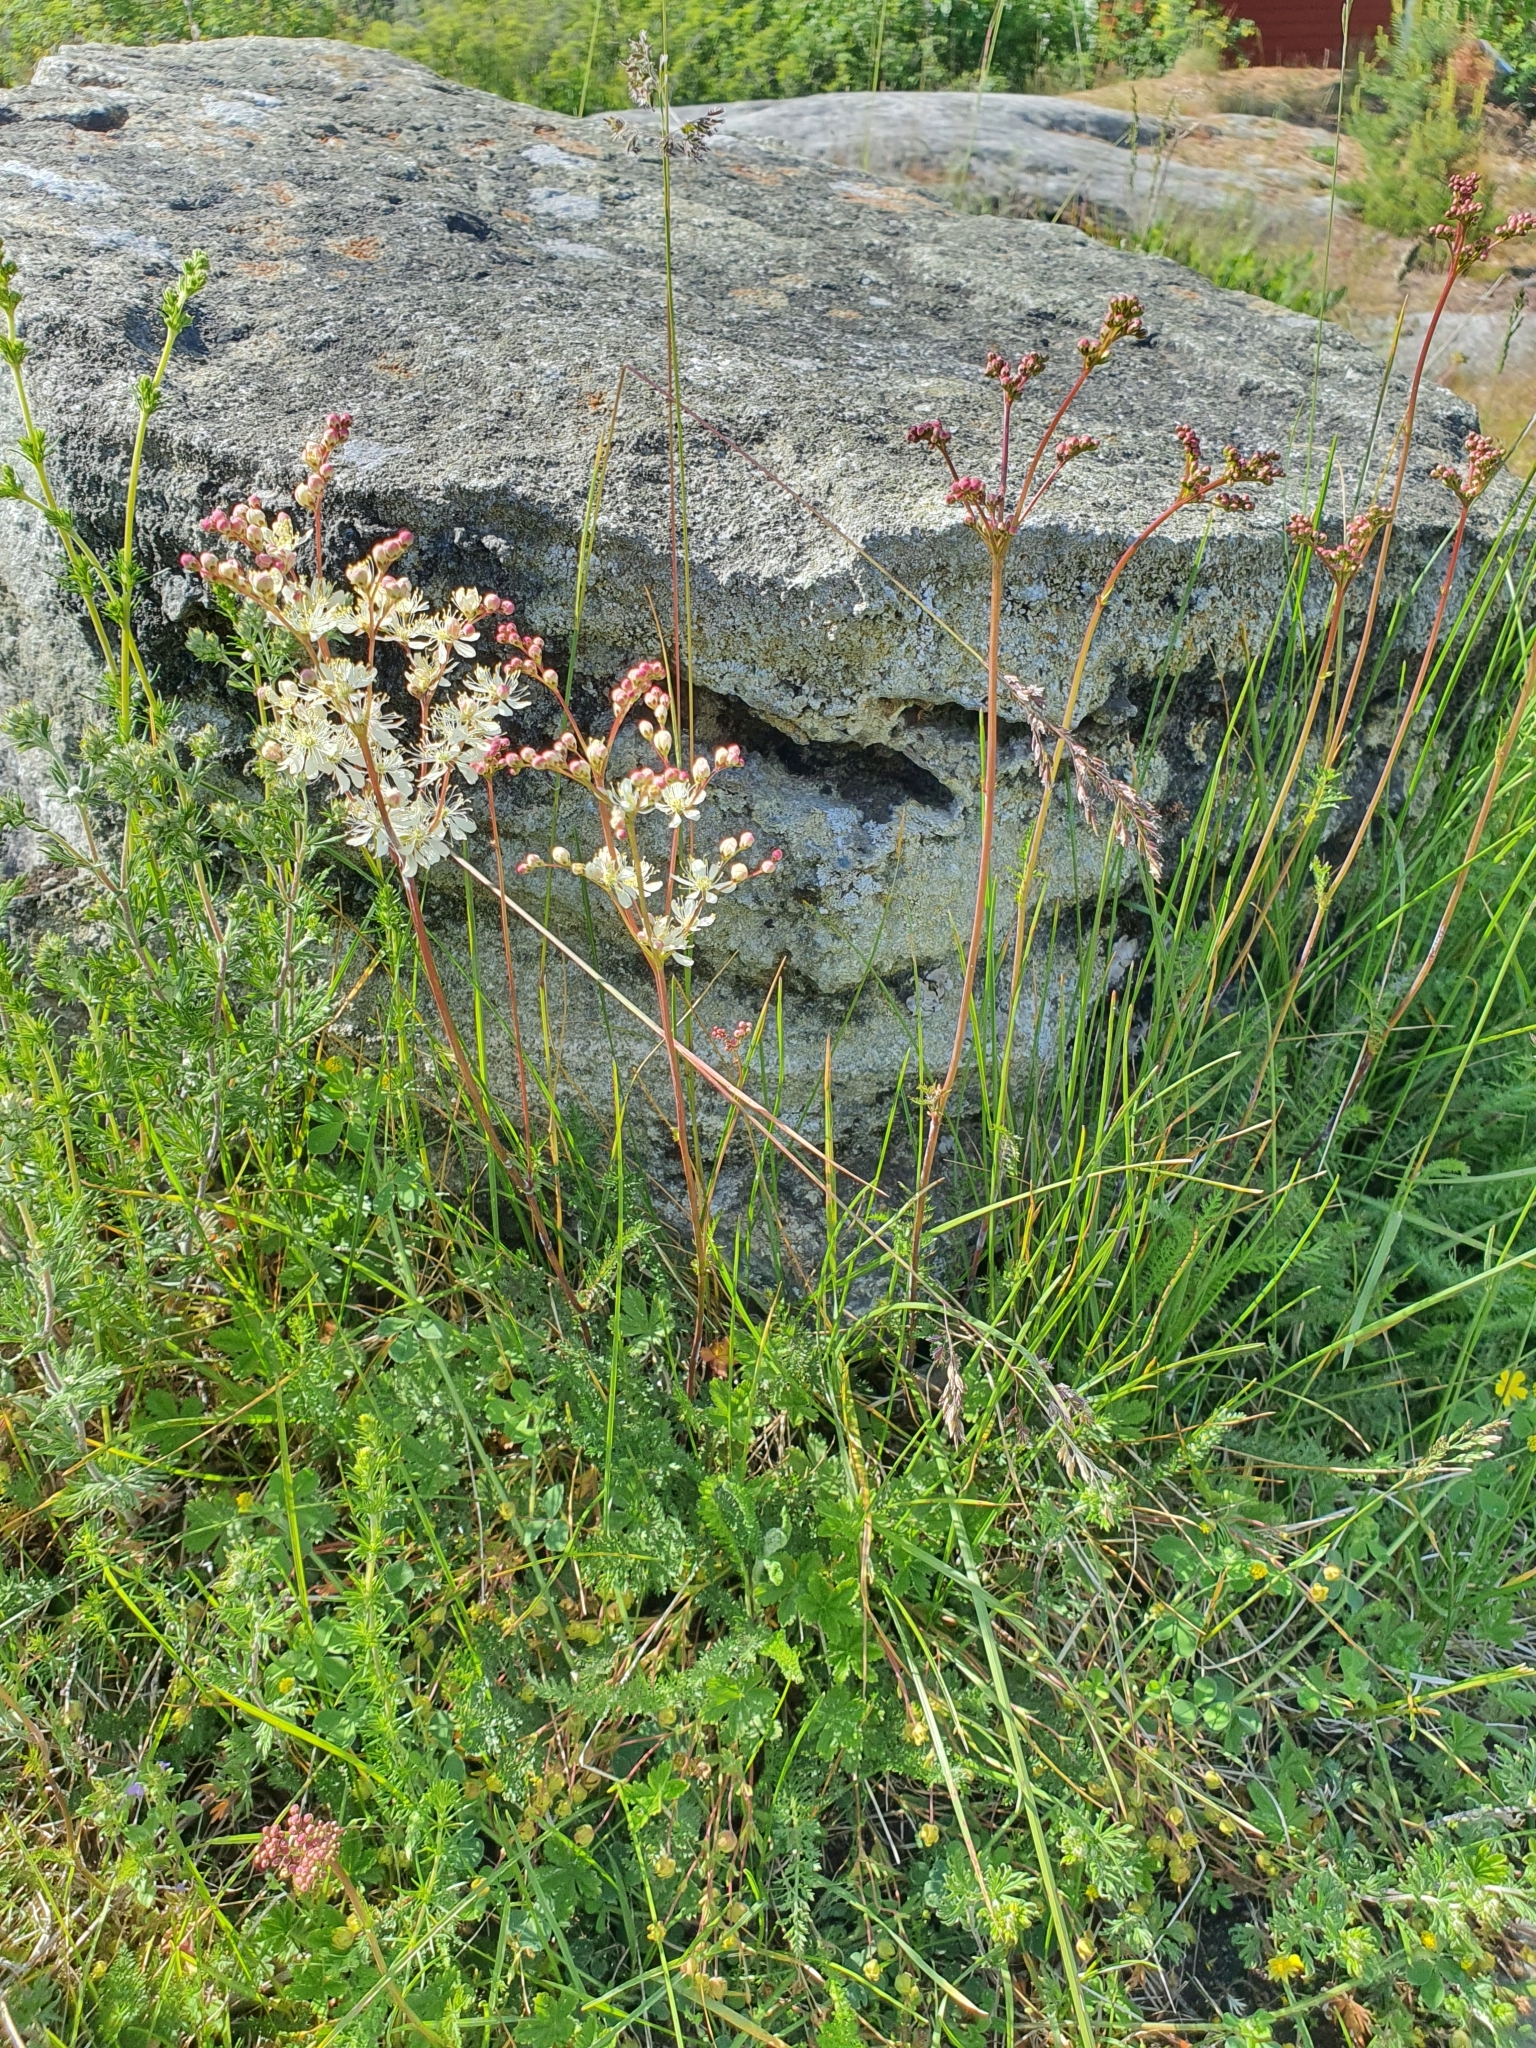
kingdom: Plantae
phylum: Tracheophyta
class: Magnoliopsida
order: Rosales
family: Rosaceae
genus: Filipendula
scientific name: Filipendula vulgaris
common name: Dropwort
